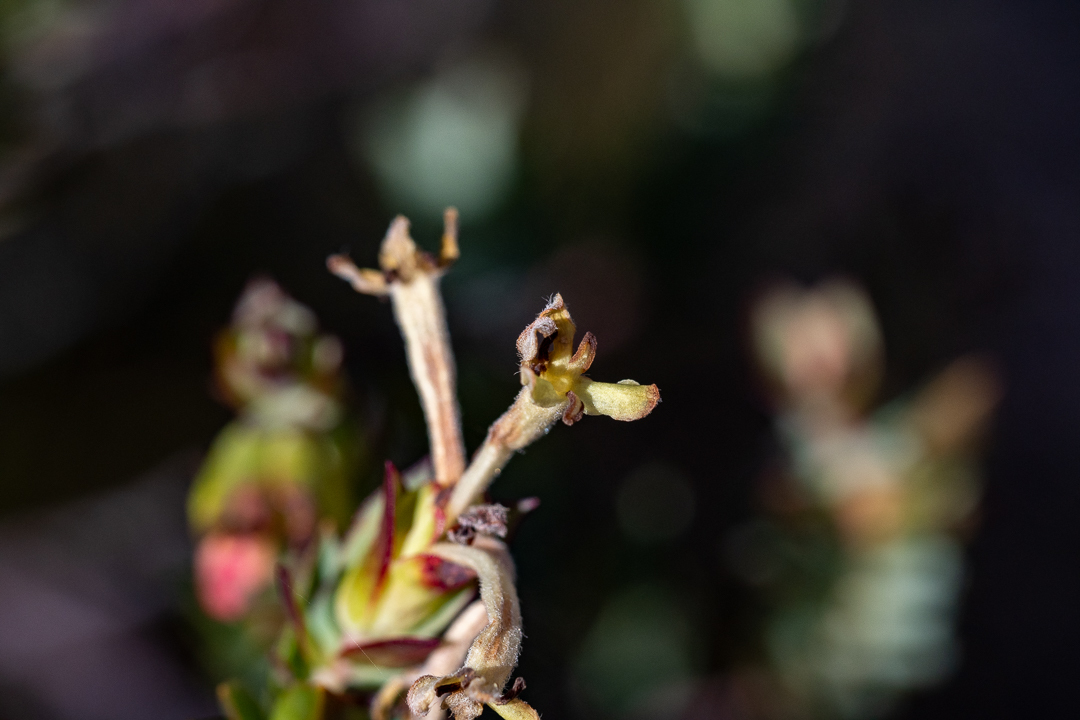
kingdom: Plantae
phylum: Tracheophyta
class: Magnoliopsida
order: Malvales
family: Thymelaeaceae
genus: Gnidia
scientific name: Gnidia oppositifolia
